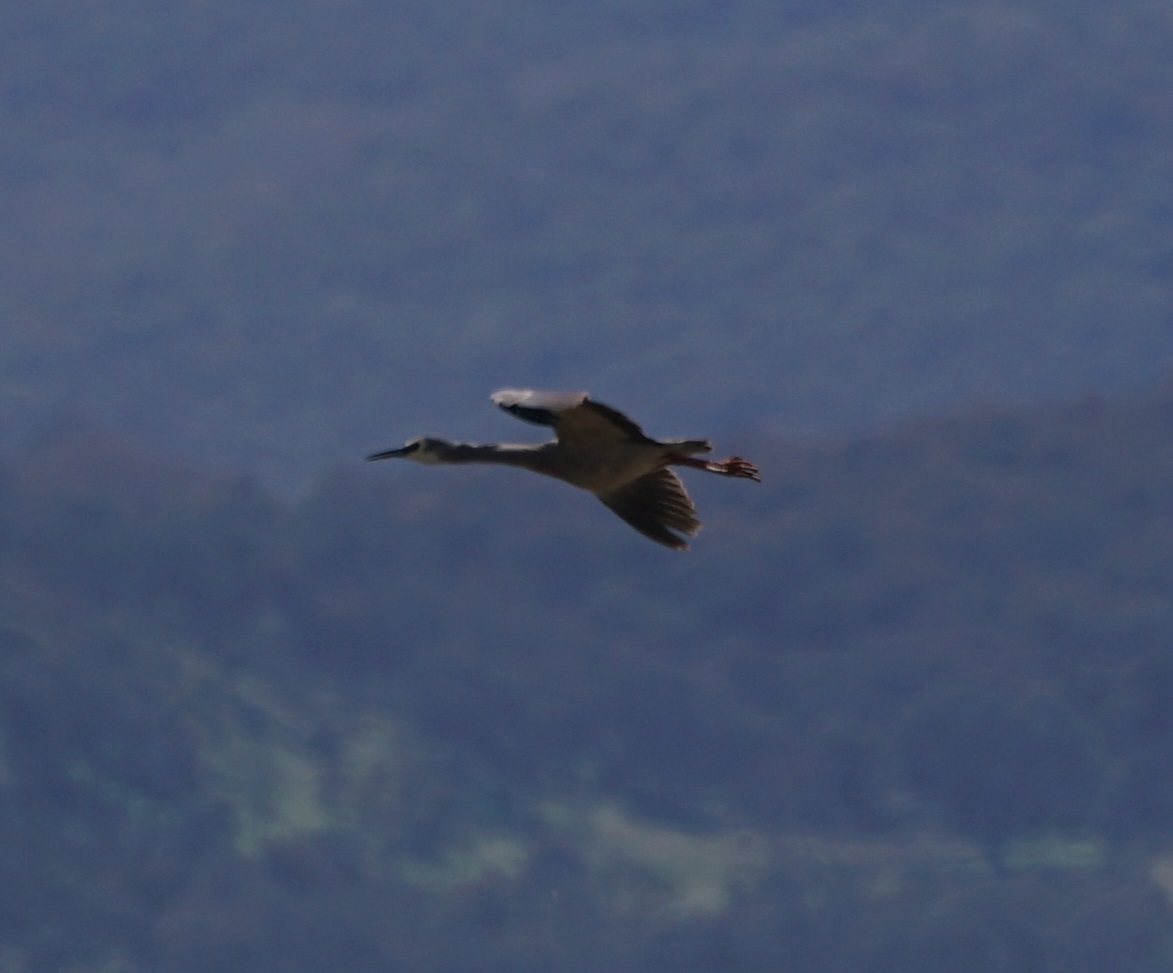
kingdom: Animalia
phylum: Chordata
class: Aves
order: Pelecaniformes
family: Ardeidae
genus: Egretta
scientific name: Egretta novaehollandiae
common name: White-faced heron
